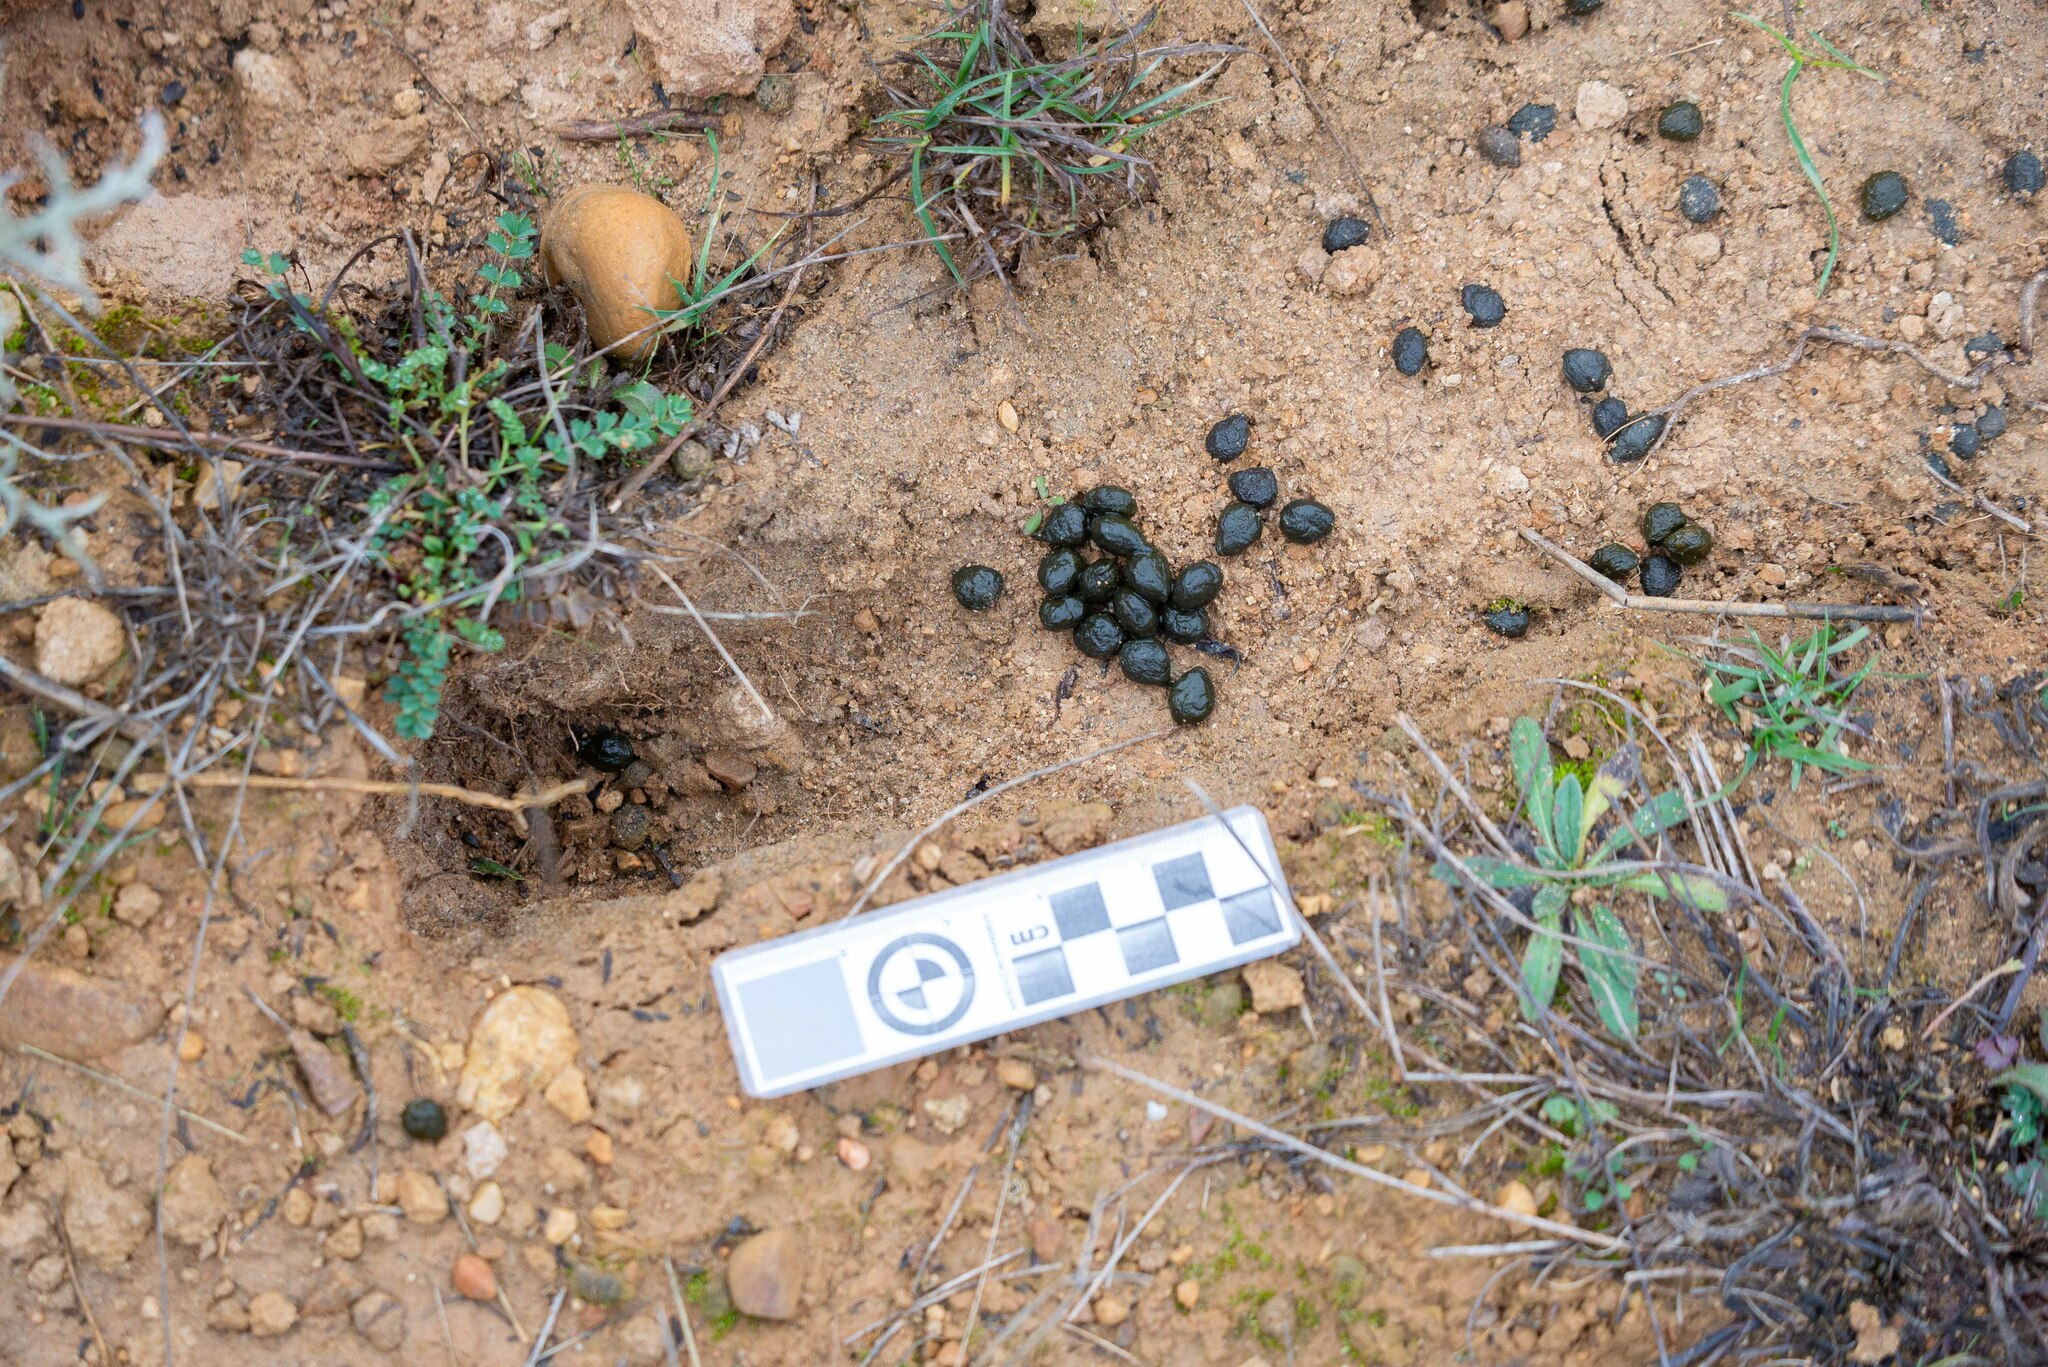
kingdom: Animalia
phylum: Chordata
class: Mammalia
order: Lagomorpha
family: Leporidae
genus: Oryctolagus
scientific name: Oryctolagus cuniculus
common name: European rabbit
